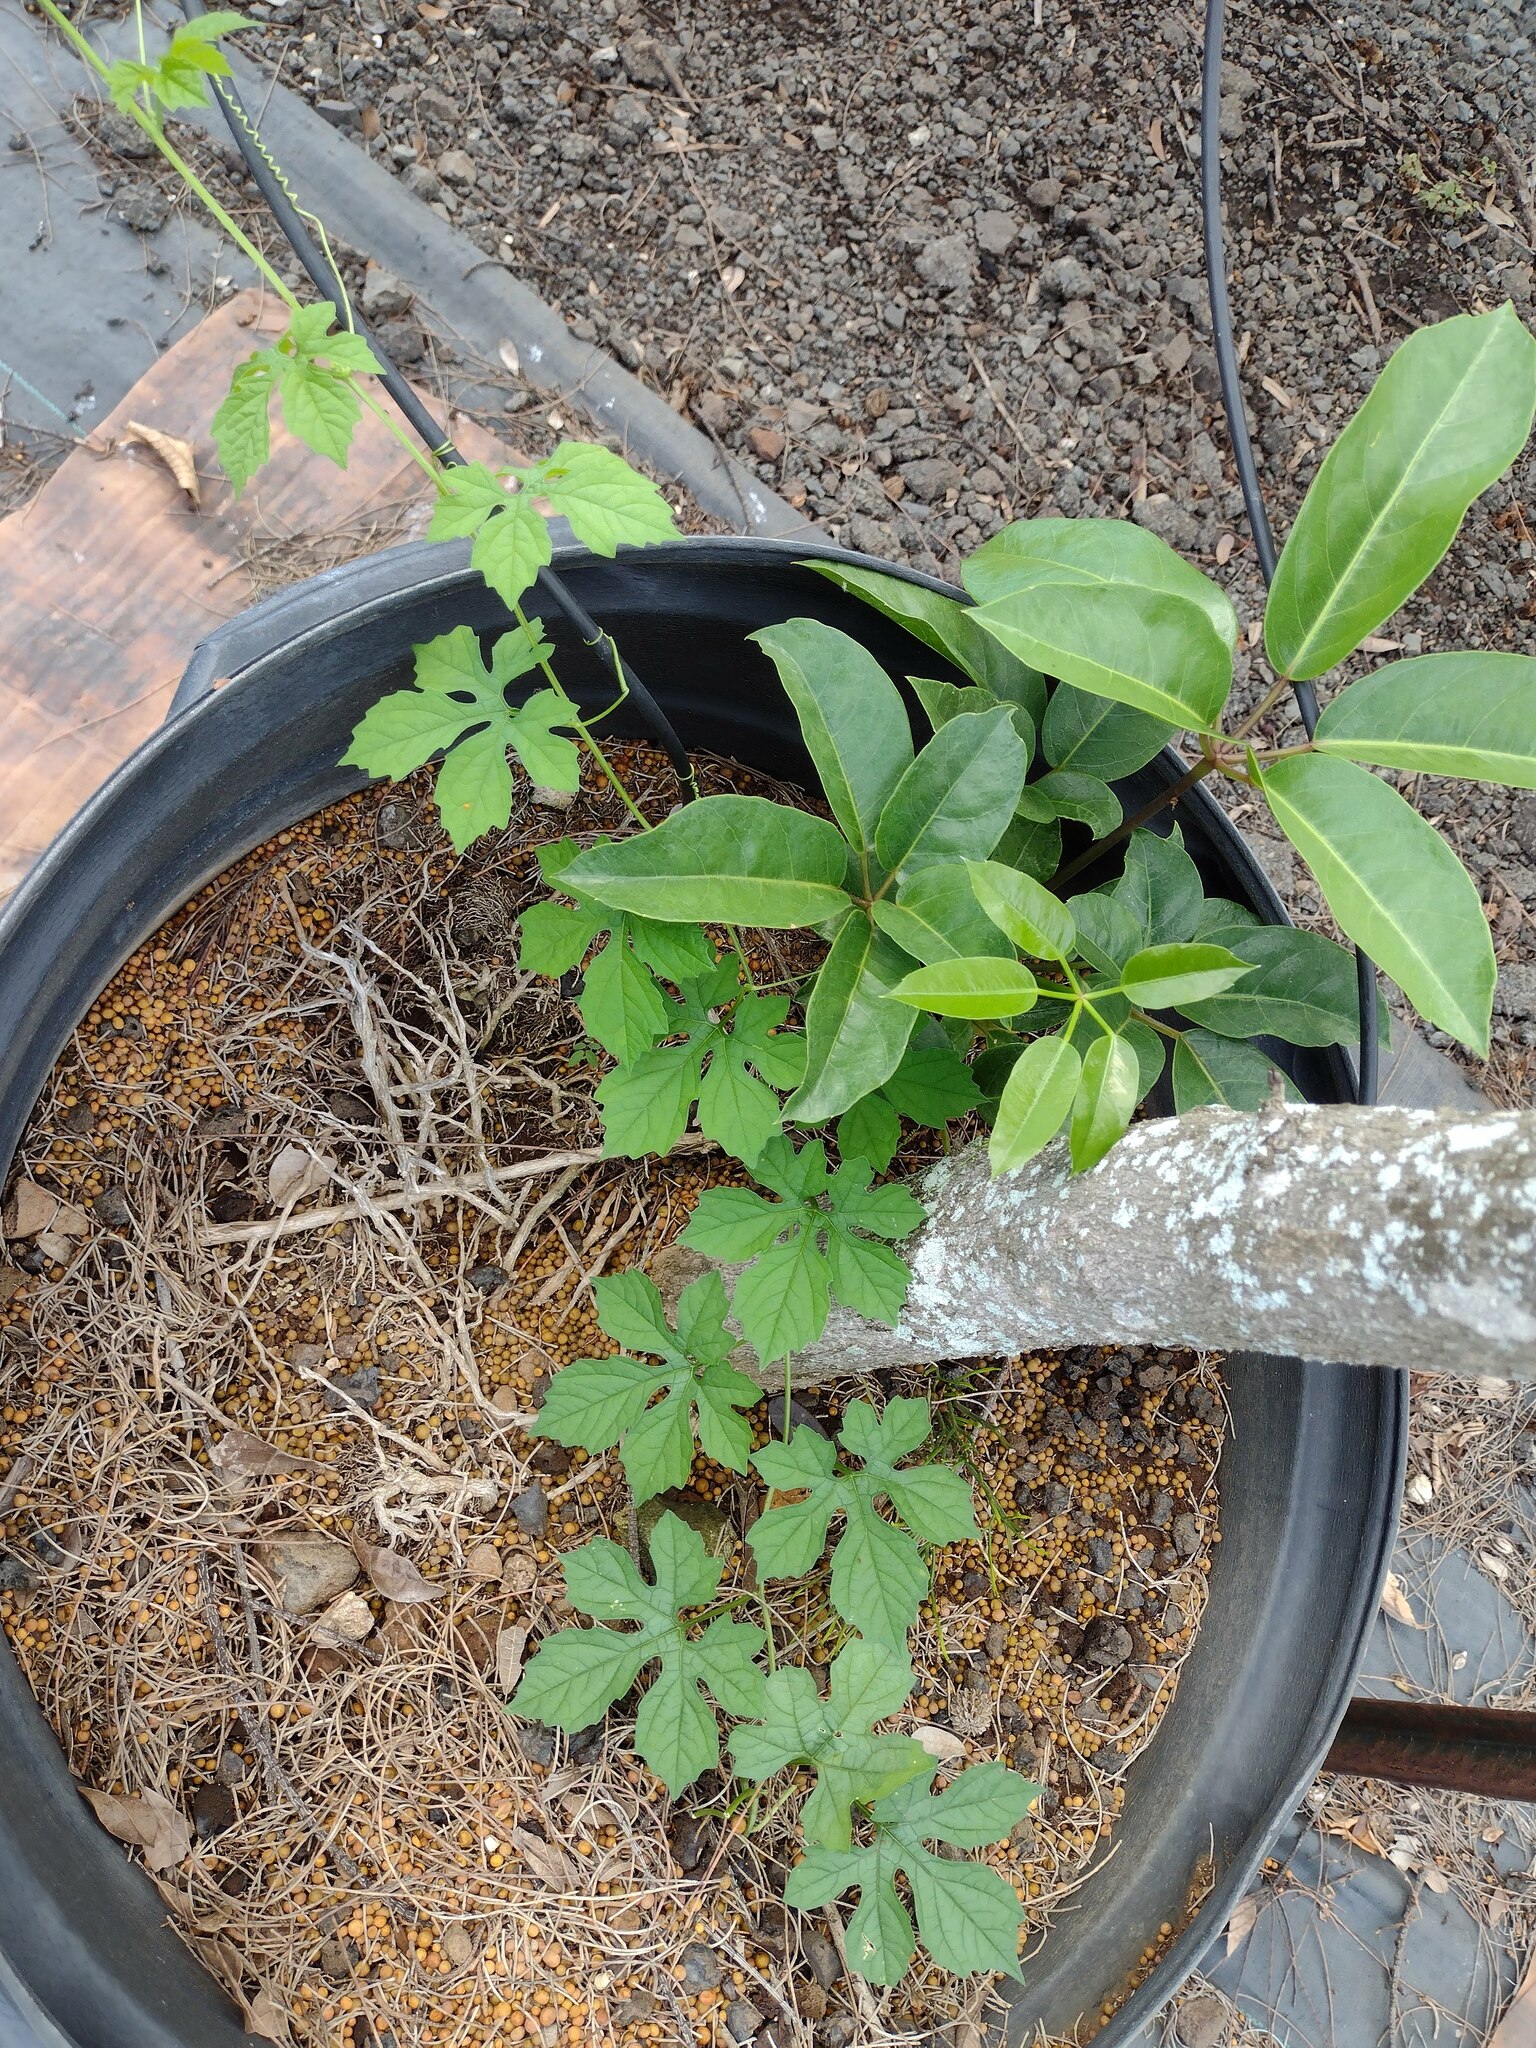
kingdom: Plantae
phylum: Tracheophyta
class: Magnoliopsida
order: Cucurbitales
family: Cucurbitaceae
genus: Momordica
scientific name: Momordica charantia
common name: Balsampear
